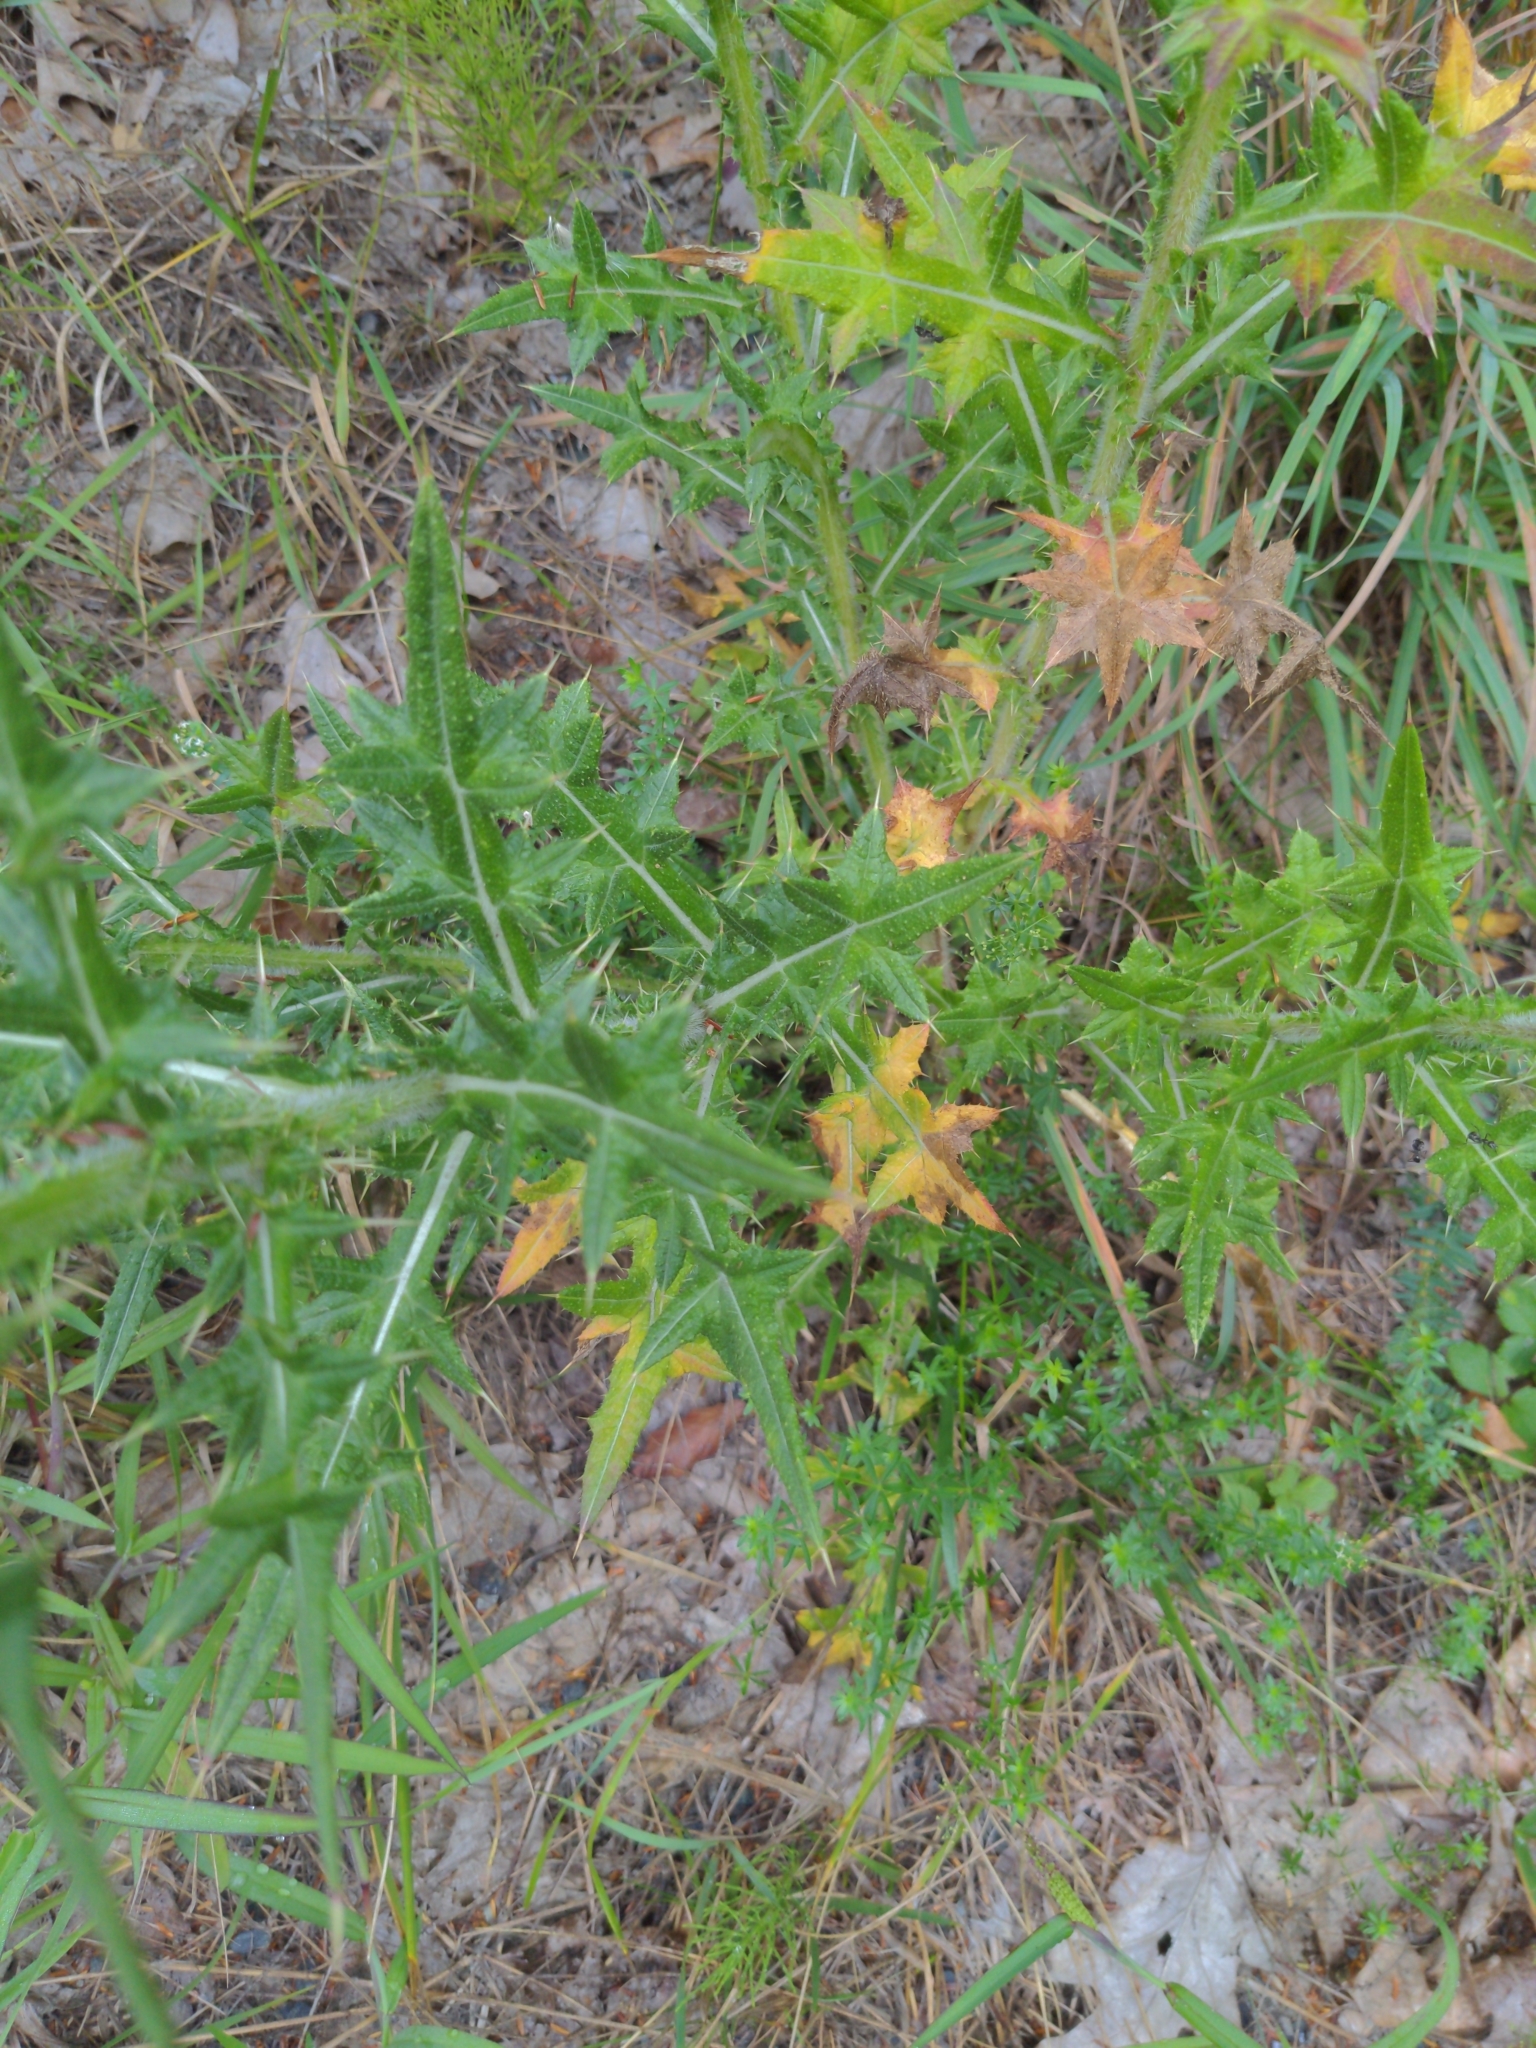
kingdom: Plantae
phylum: Tracheophyta
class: Magnoliopsida
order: Asterales
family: Asteraceae
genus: Cirsium
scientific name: Cirsium vulgare
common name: Bull thistle
